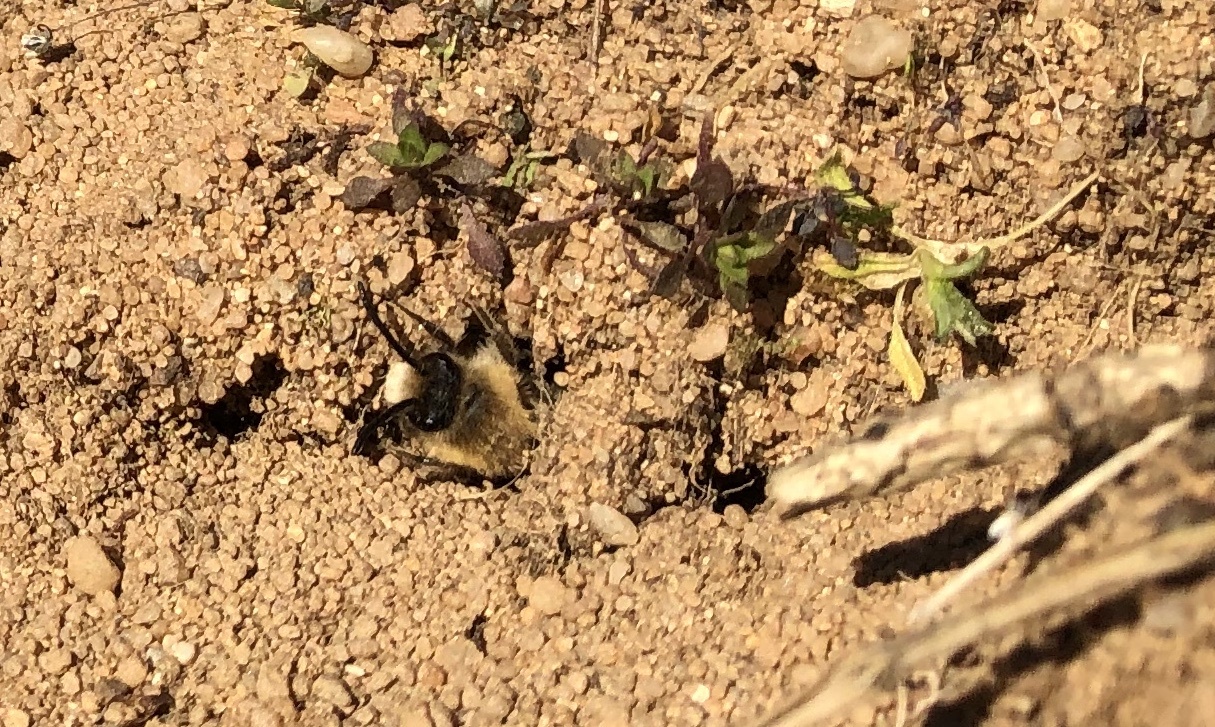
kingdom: Animalia
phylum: Arthropoda
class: Insecta
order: Hymenoptera
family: Colletidae
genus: Colletes
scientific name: Colletes cunicularius
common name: Early colletes
